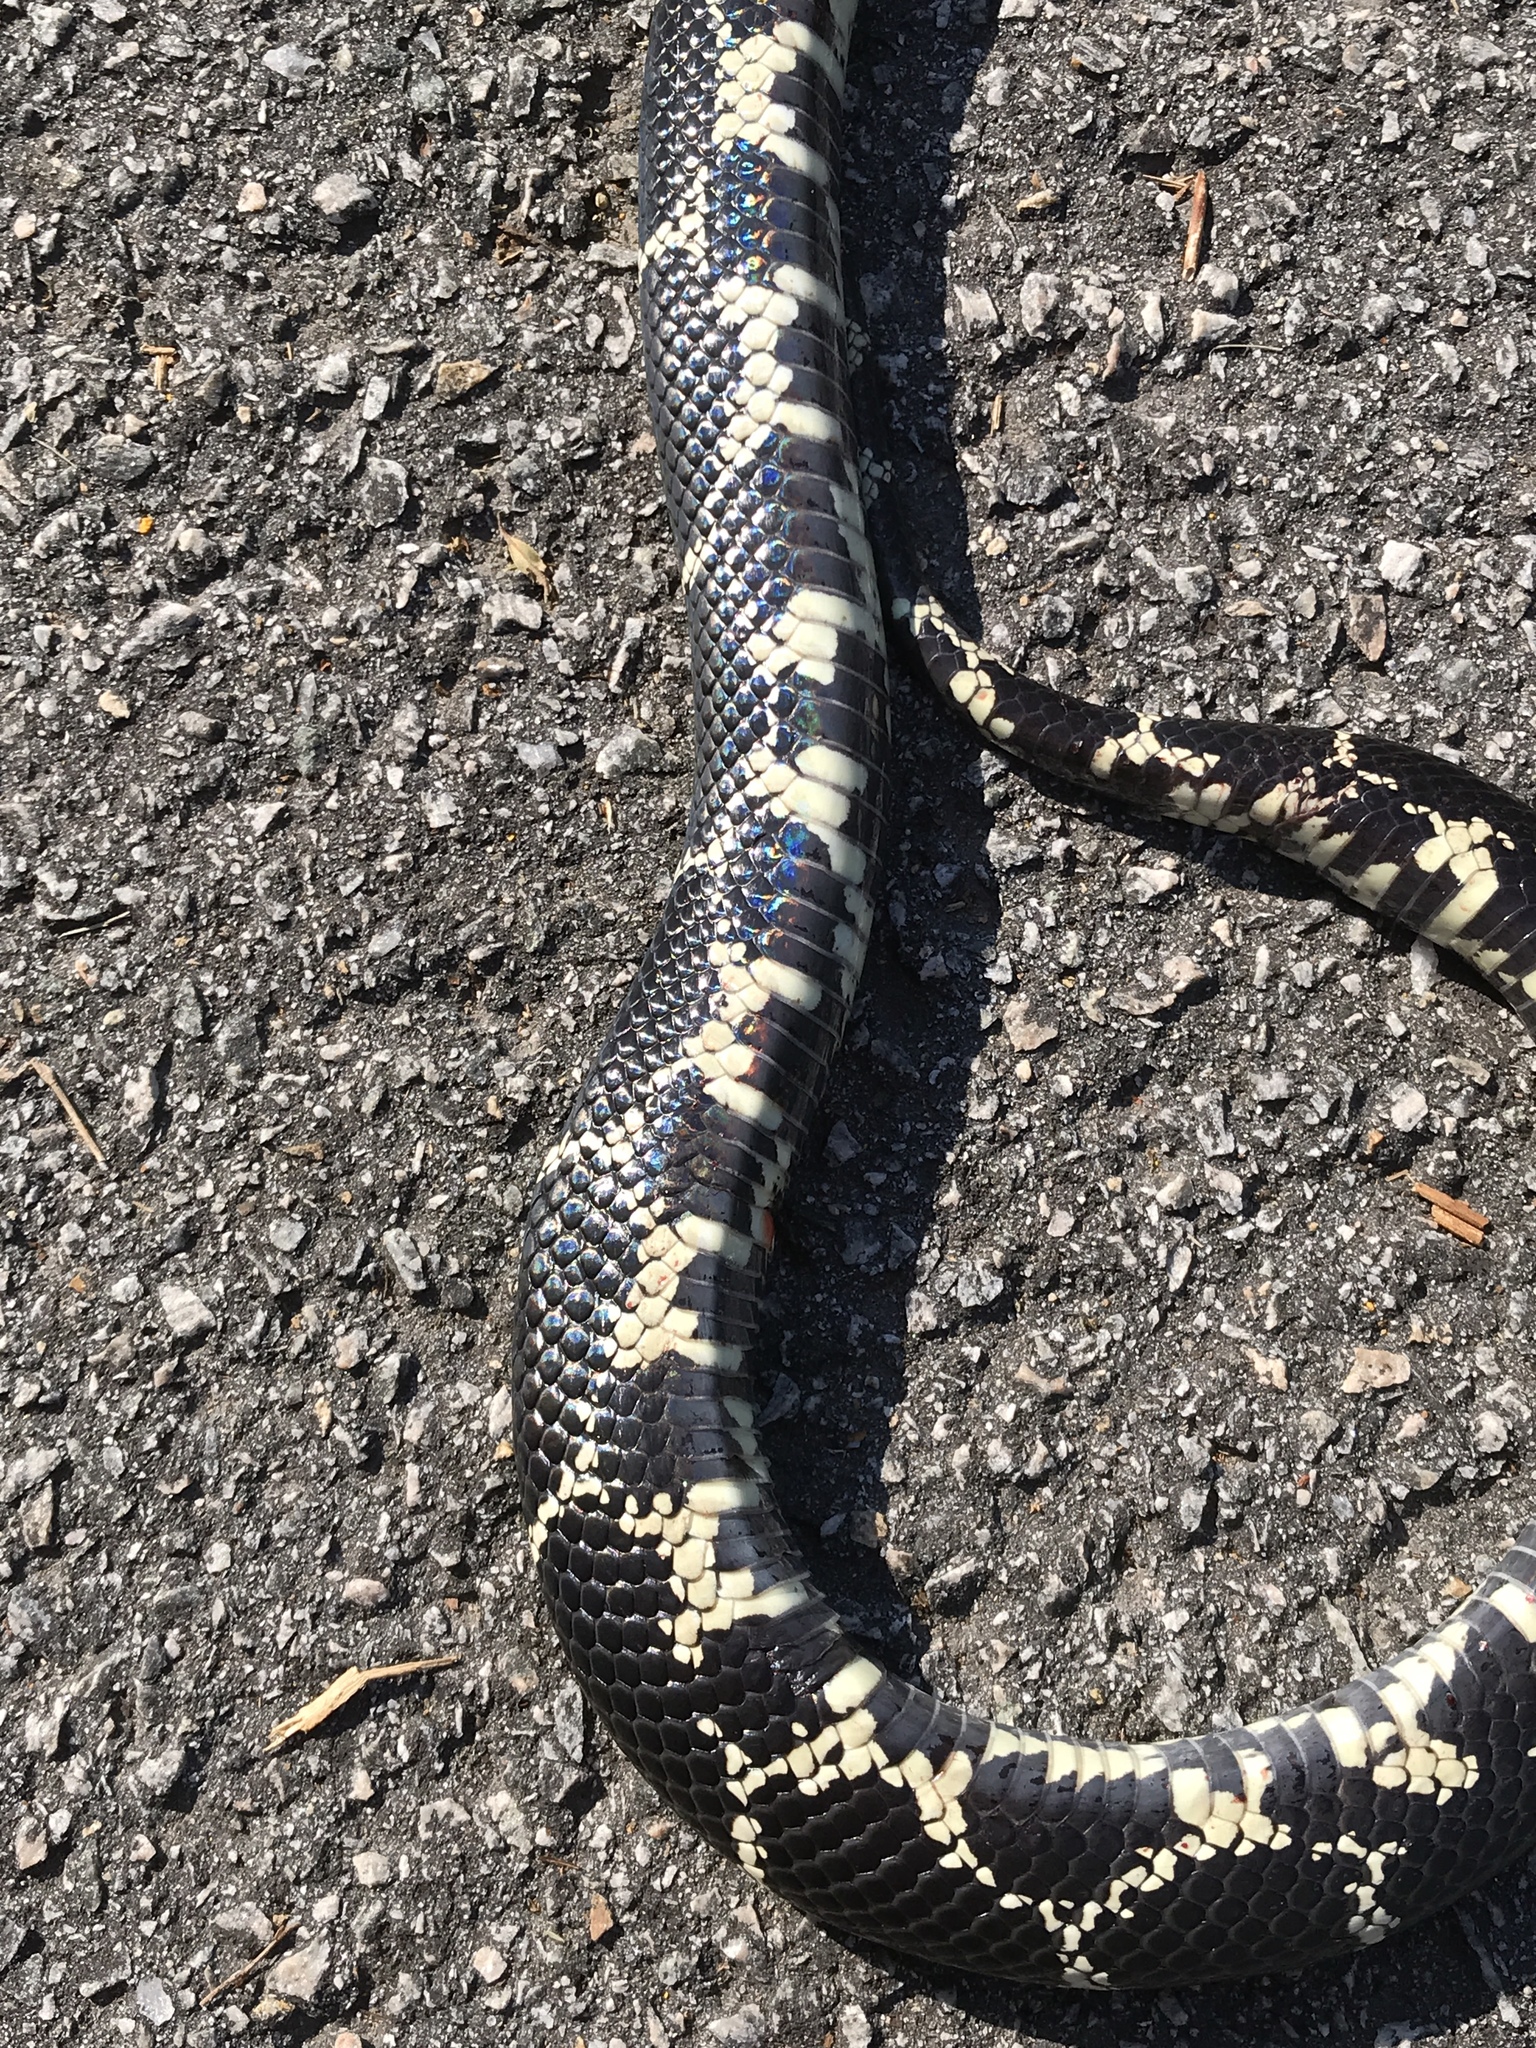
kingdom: Animalia
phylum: Chordata
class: Squamata
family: Colubridae
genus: Lampropeltis
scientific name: Lampropeltis getula
